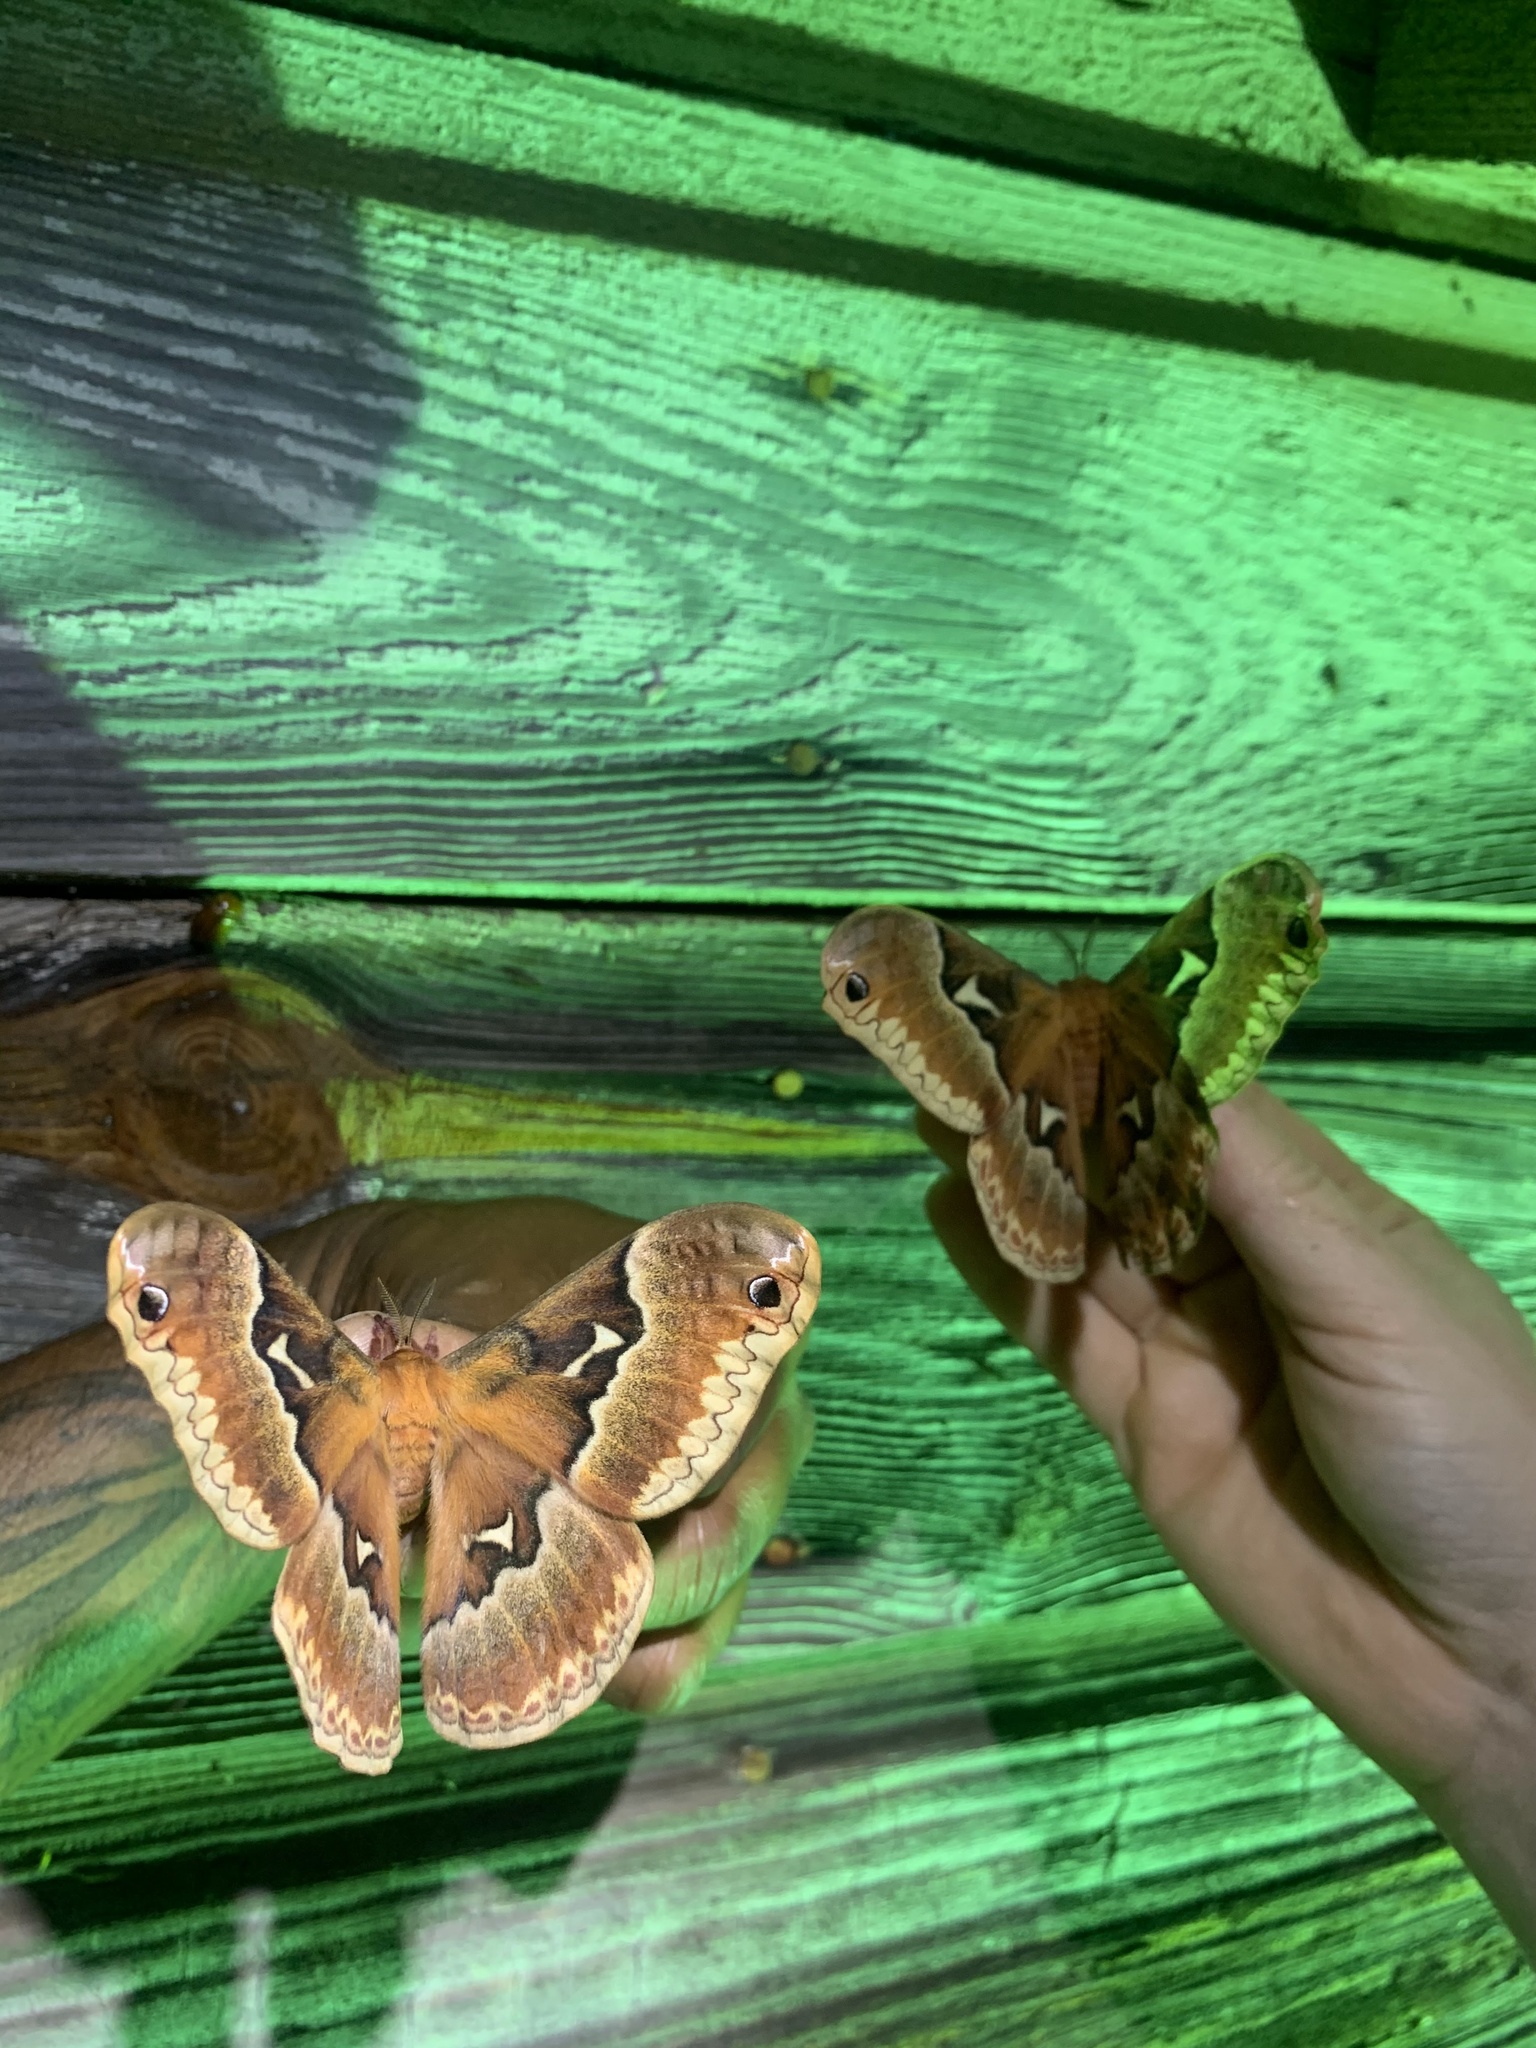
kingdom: Animalia
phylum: Arthropoda
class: Insecta
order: Lepidoptera
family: Saturniidae
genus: Callosamia
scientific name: Callosamia angulifera
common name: Tulip tree silkmoth
